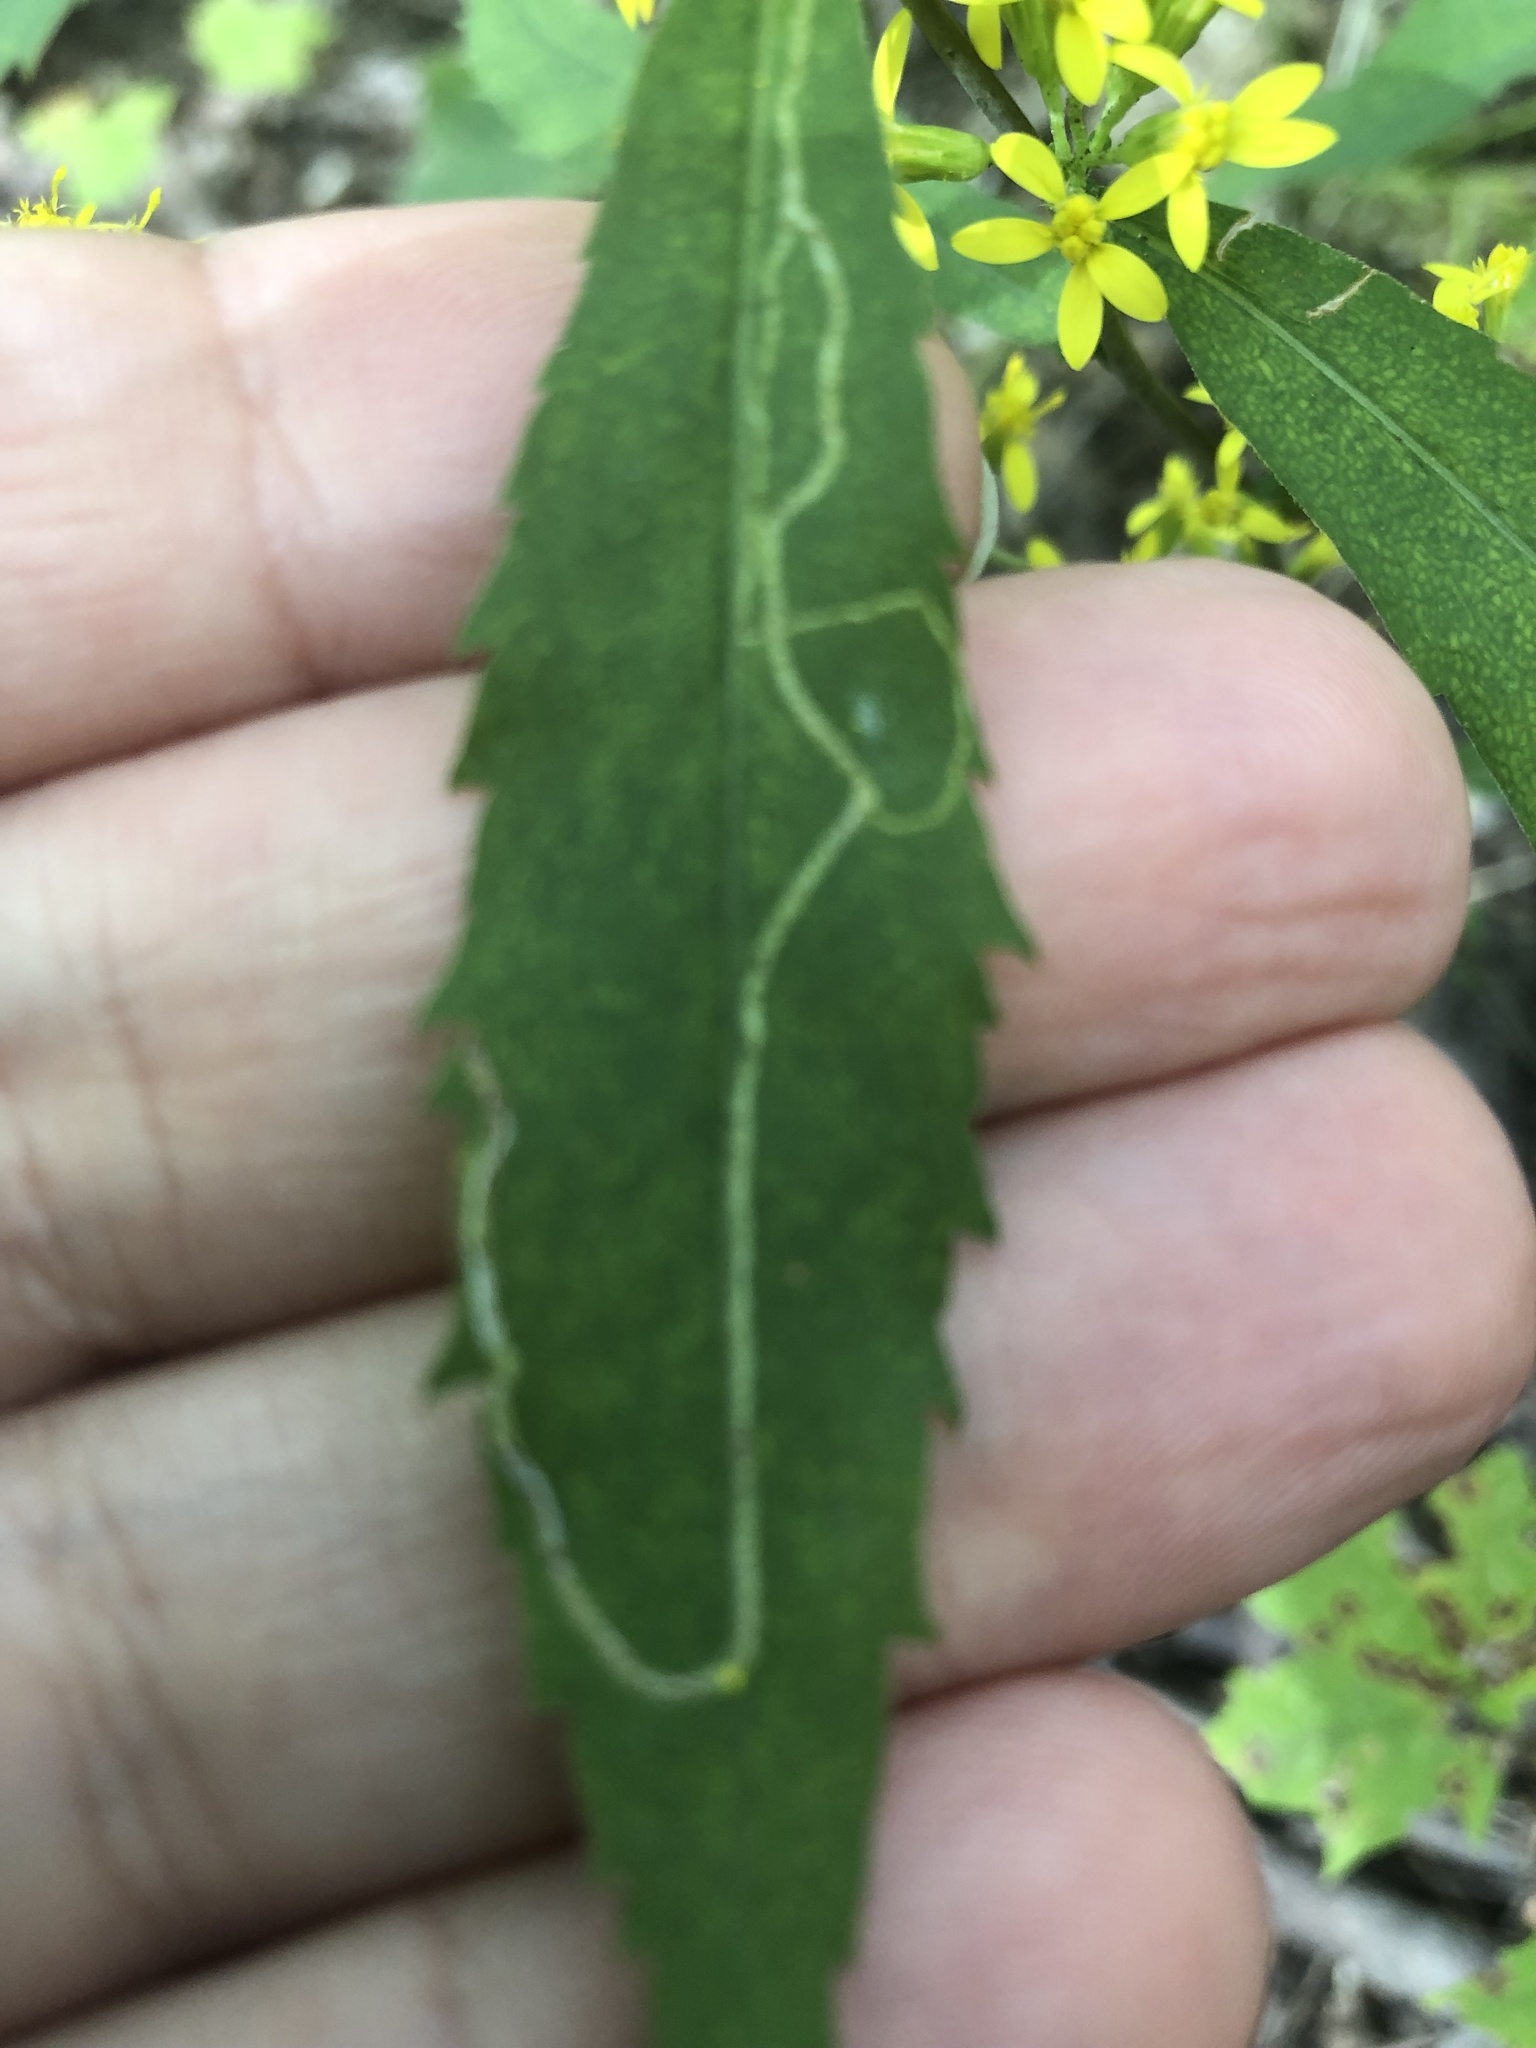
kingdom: Animalia
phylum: Arthropoda
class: Insecta
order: Diptera
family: Agromyzidae
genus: Ophiomyia
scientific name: Ophiomyia maura
